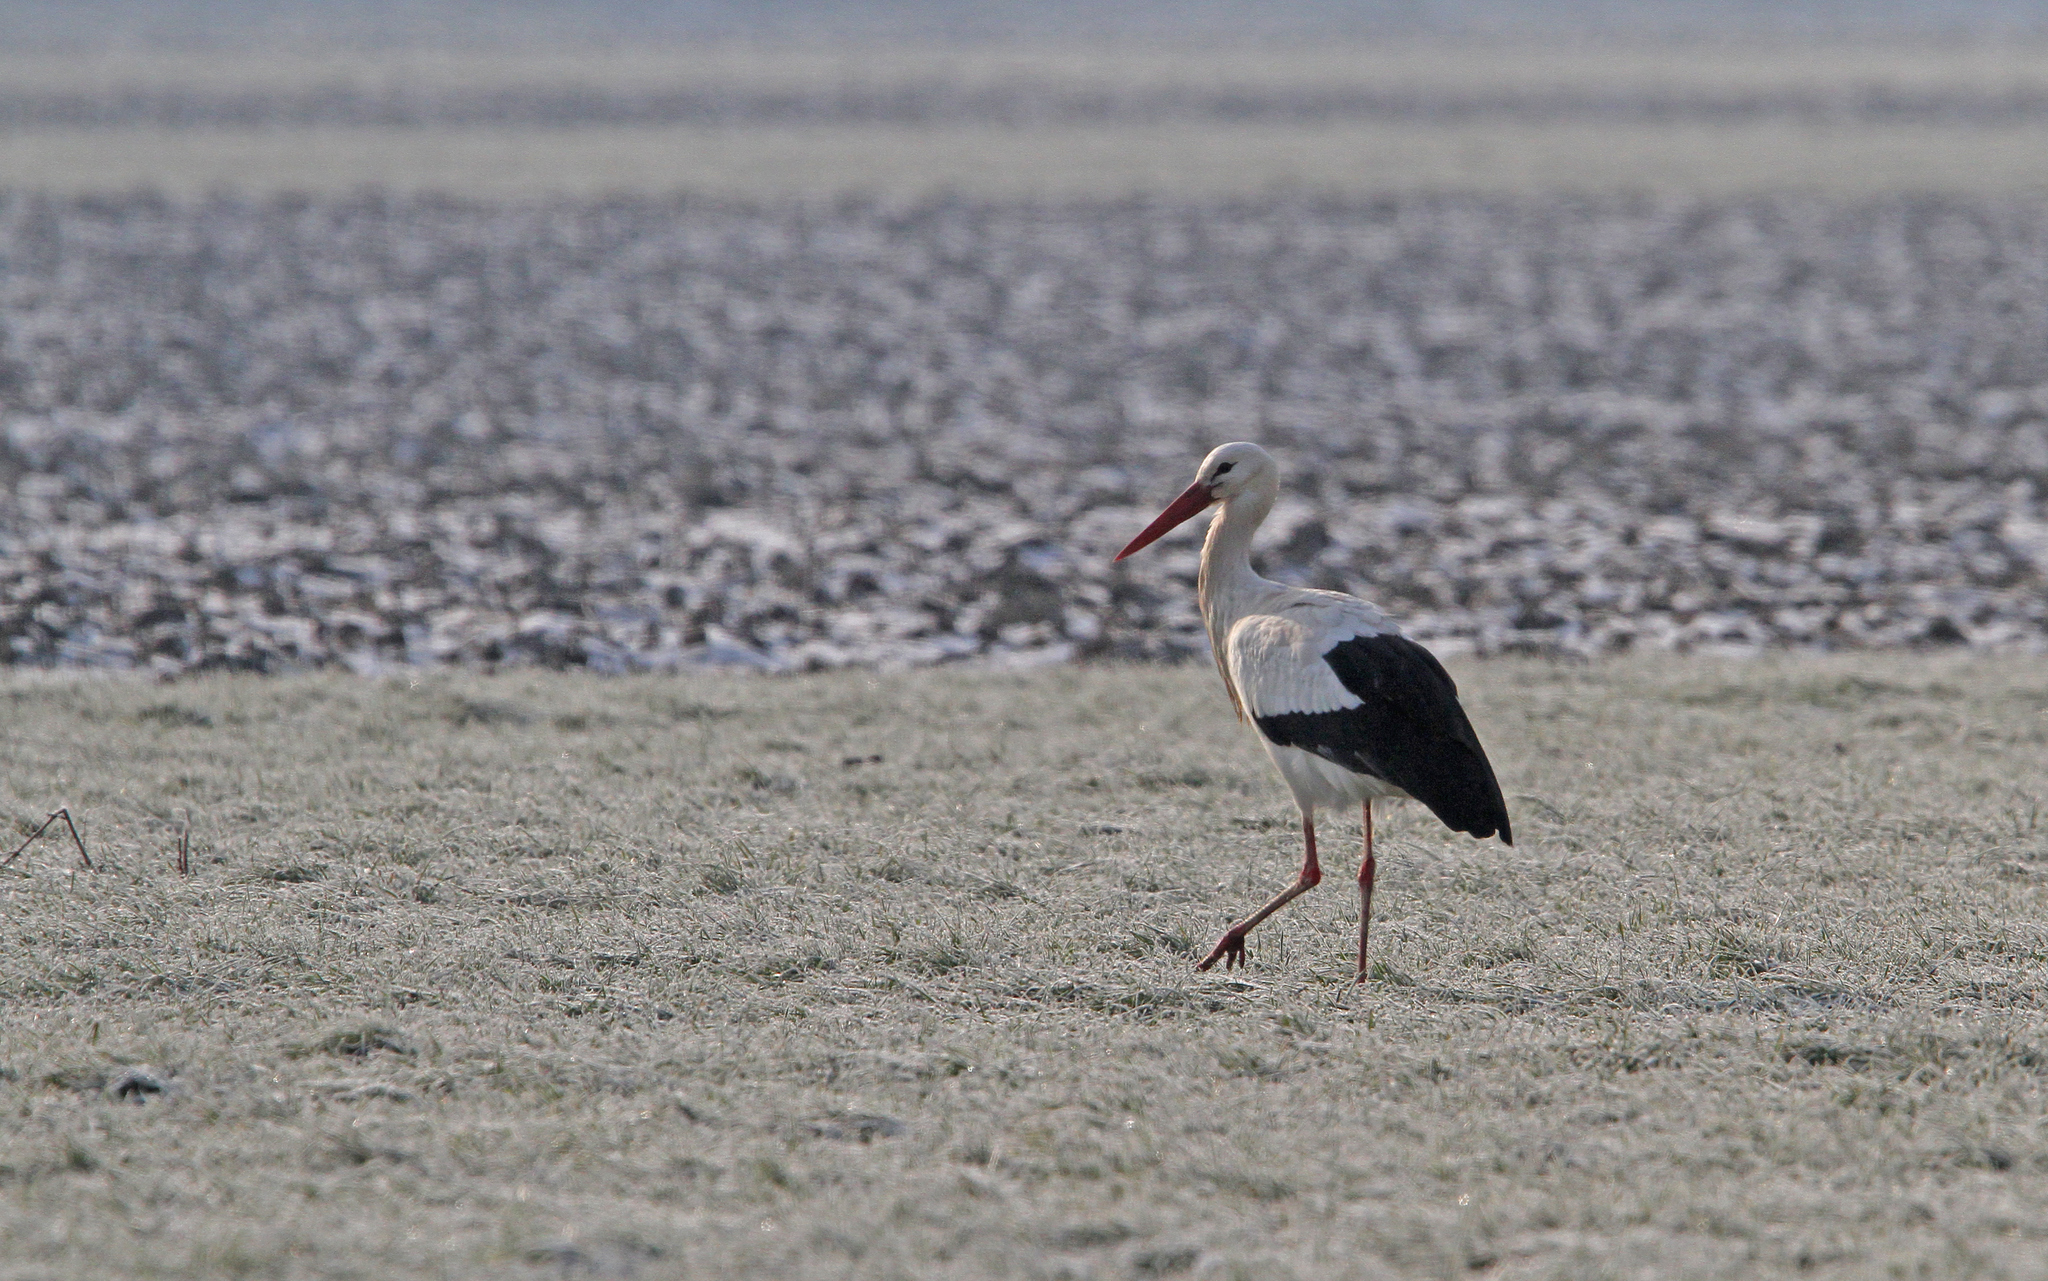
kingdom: Animalia
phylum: Chordata
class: Aves
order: Ciconiiformes
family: Ciconiidae
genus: Ciconia
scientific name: Ciconia ciconia
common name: White stork
